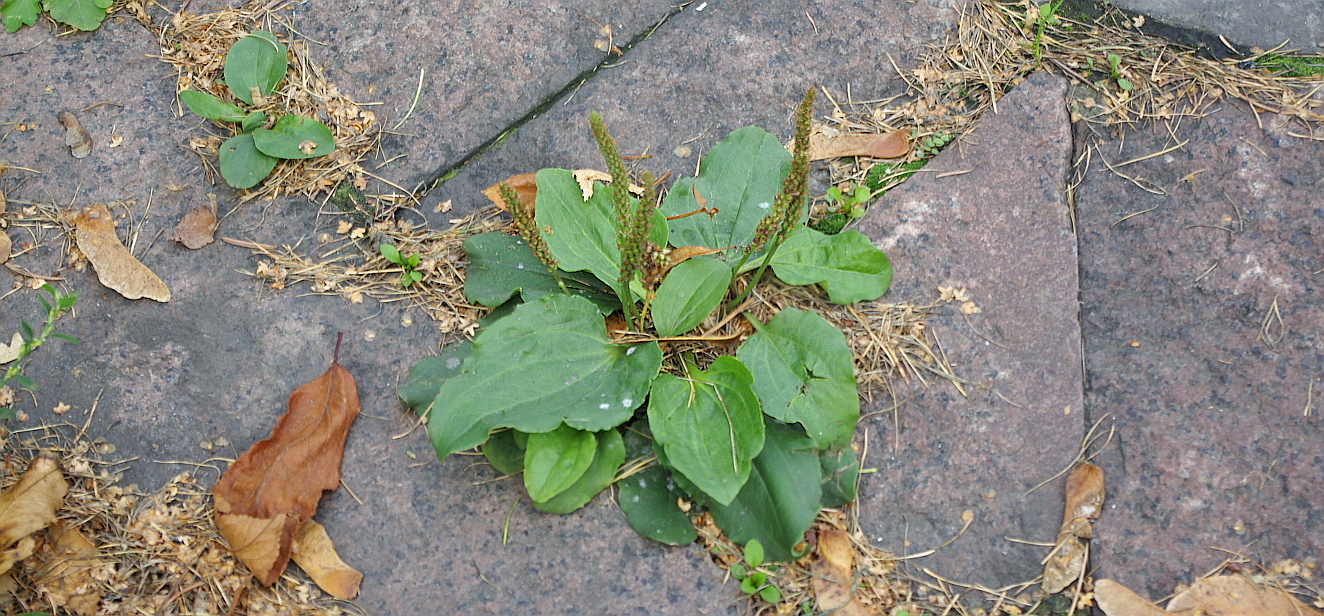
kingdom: Plantae
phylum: Tracheophyta
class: Magnoliopsida
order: Lamiales
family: Plantaginaceae
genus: Plantago
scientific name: Plantago major
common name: Common plantain
